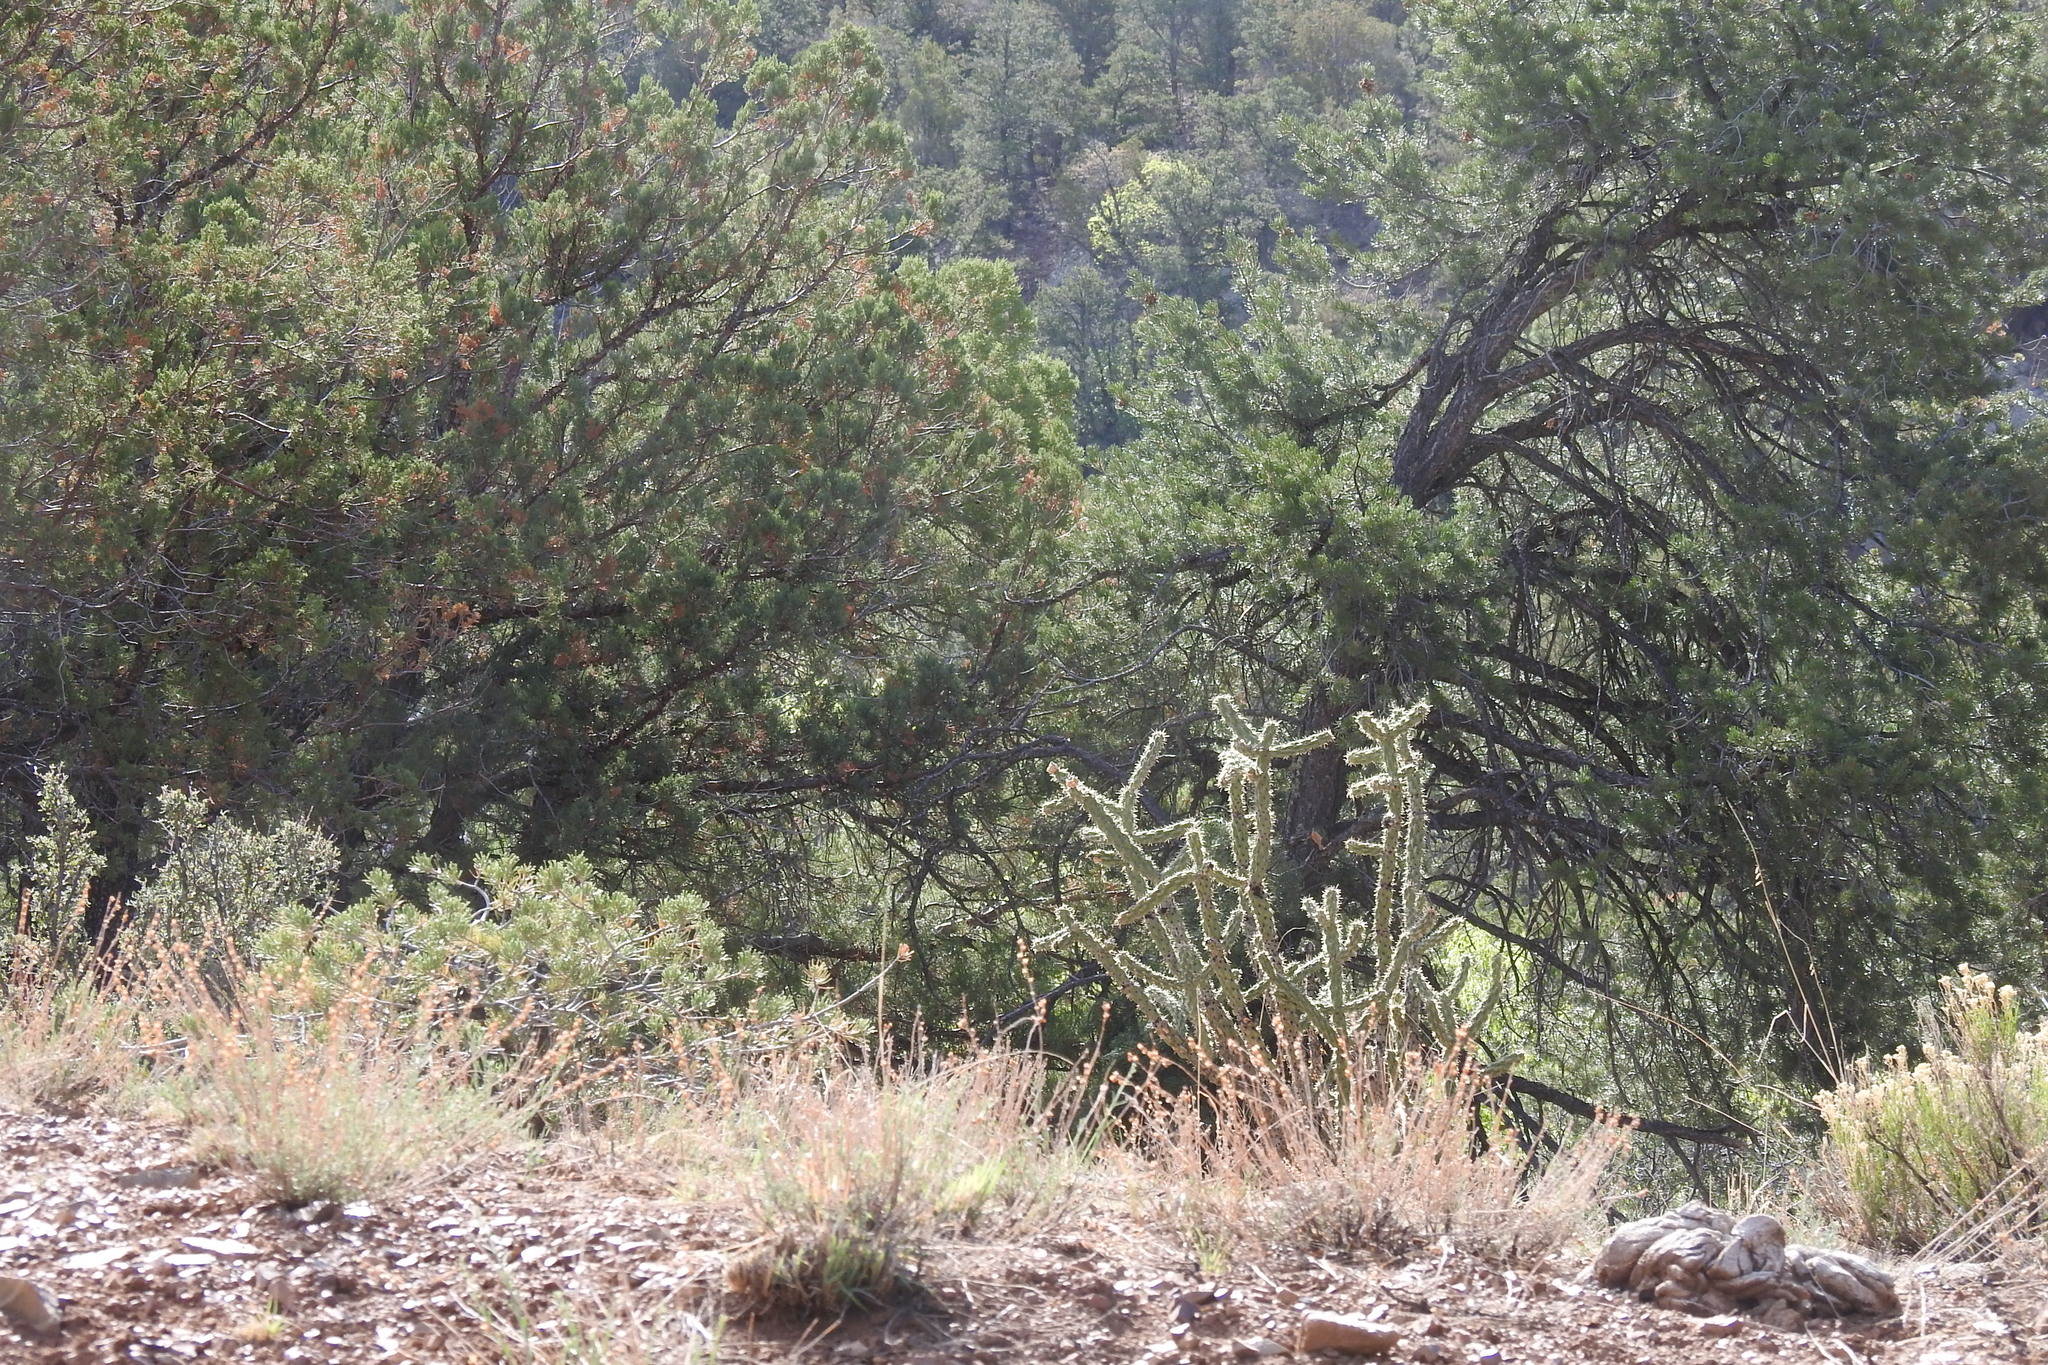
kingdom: Plantae
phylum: Tracheophyta
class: Magnoliopsida
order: Caryophyllales
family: Cactaceae
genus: Cylindropuntia
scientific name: Cylindropuntia imbricata
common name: Candelabrum cactus
